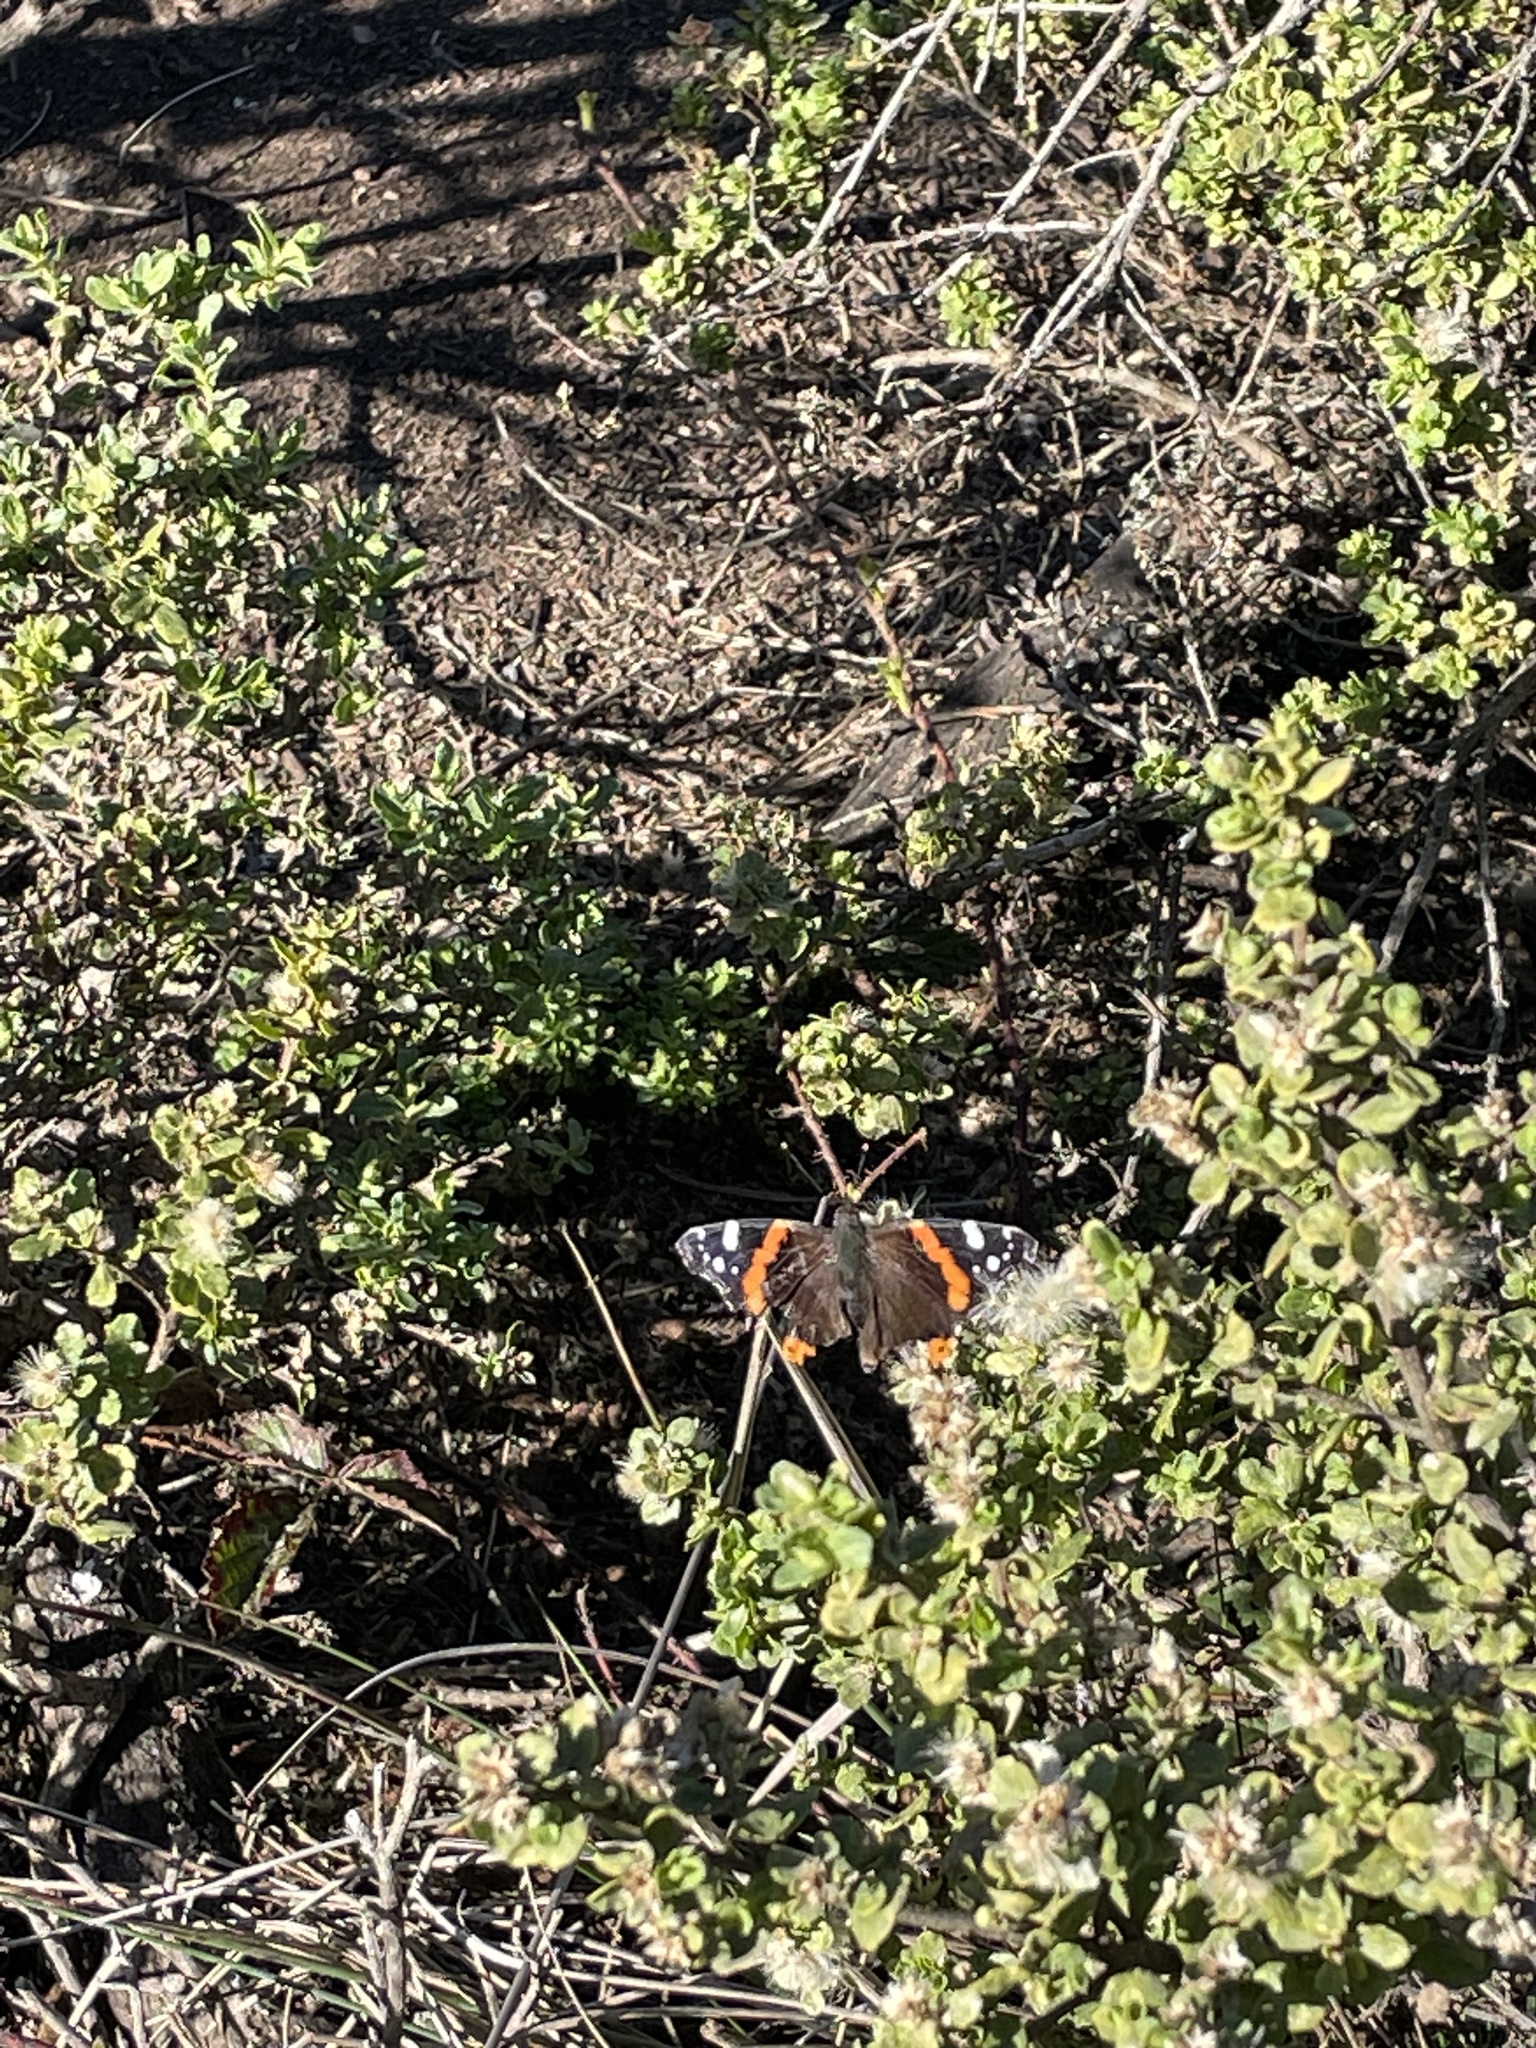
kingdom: Animalia
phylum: Arthropoda
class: Insecta
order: Lepidoptera
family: Nymphalidae
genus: Vanessa
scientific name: Vanessa atalanta
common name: Red admiral
